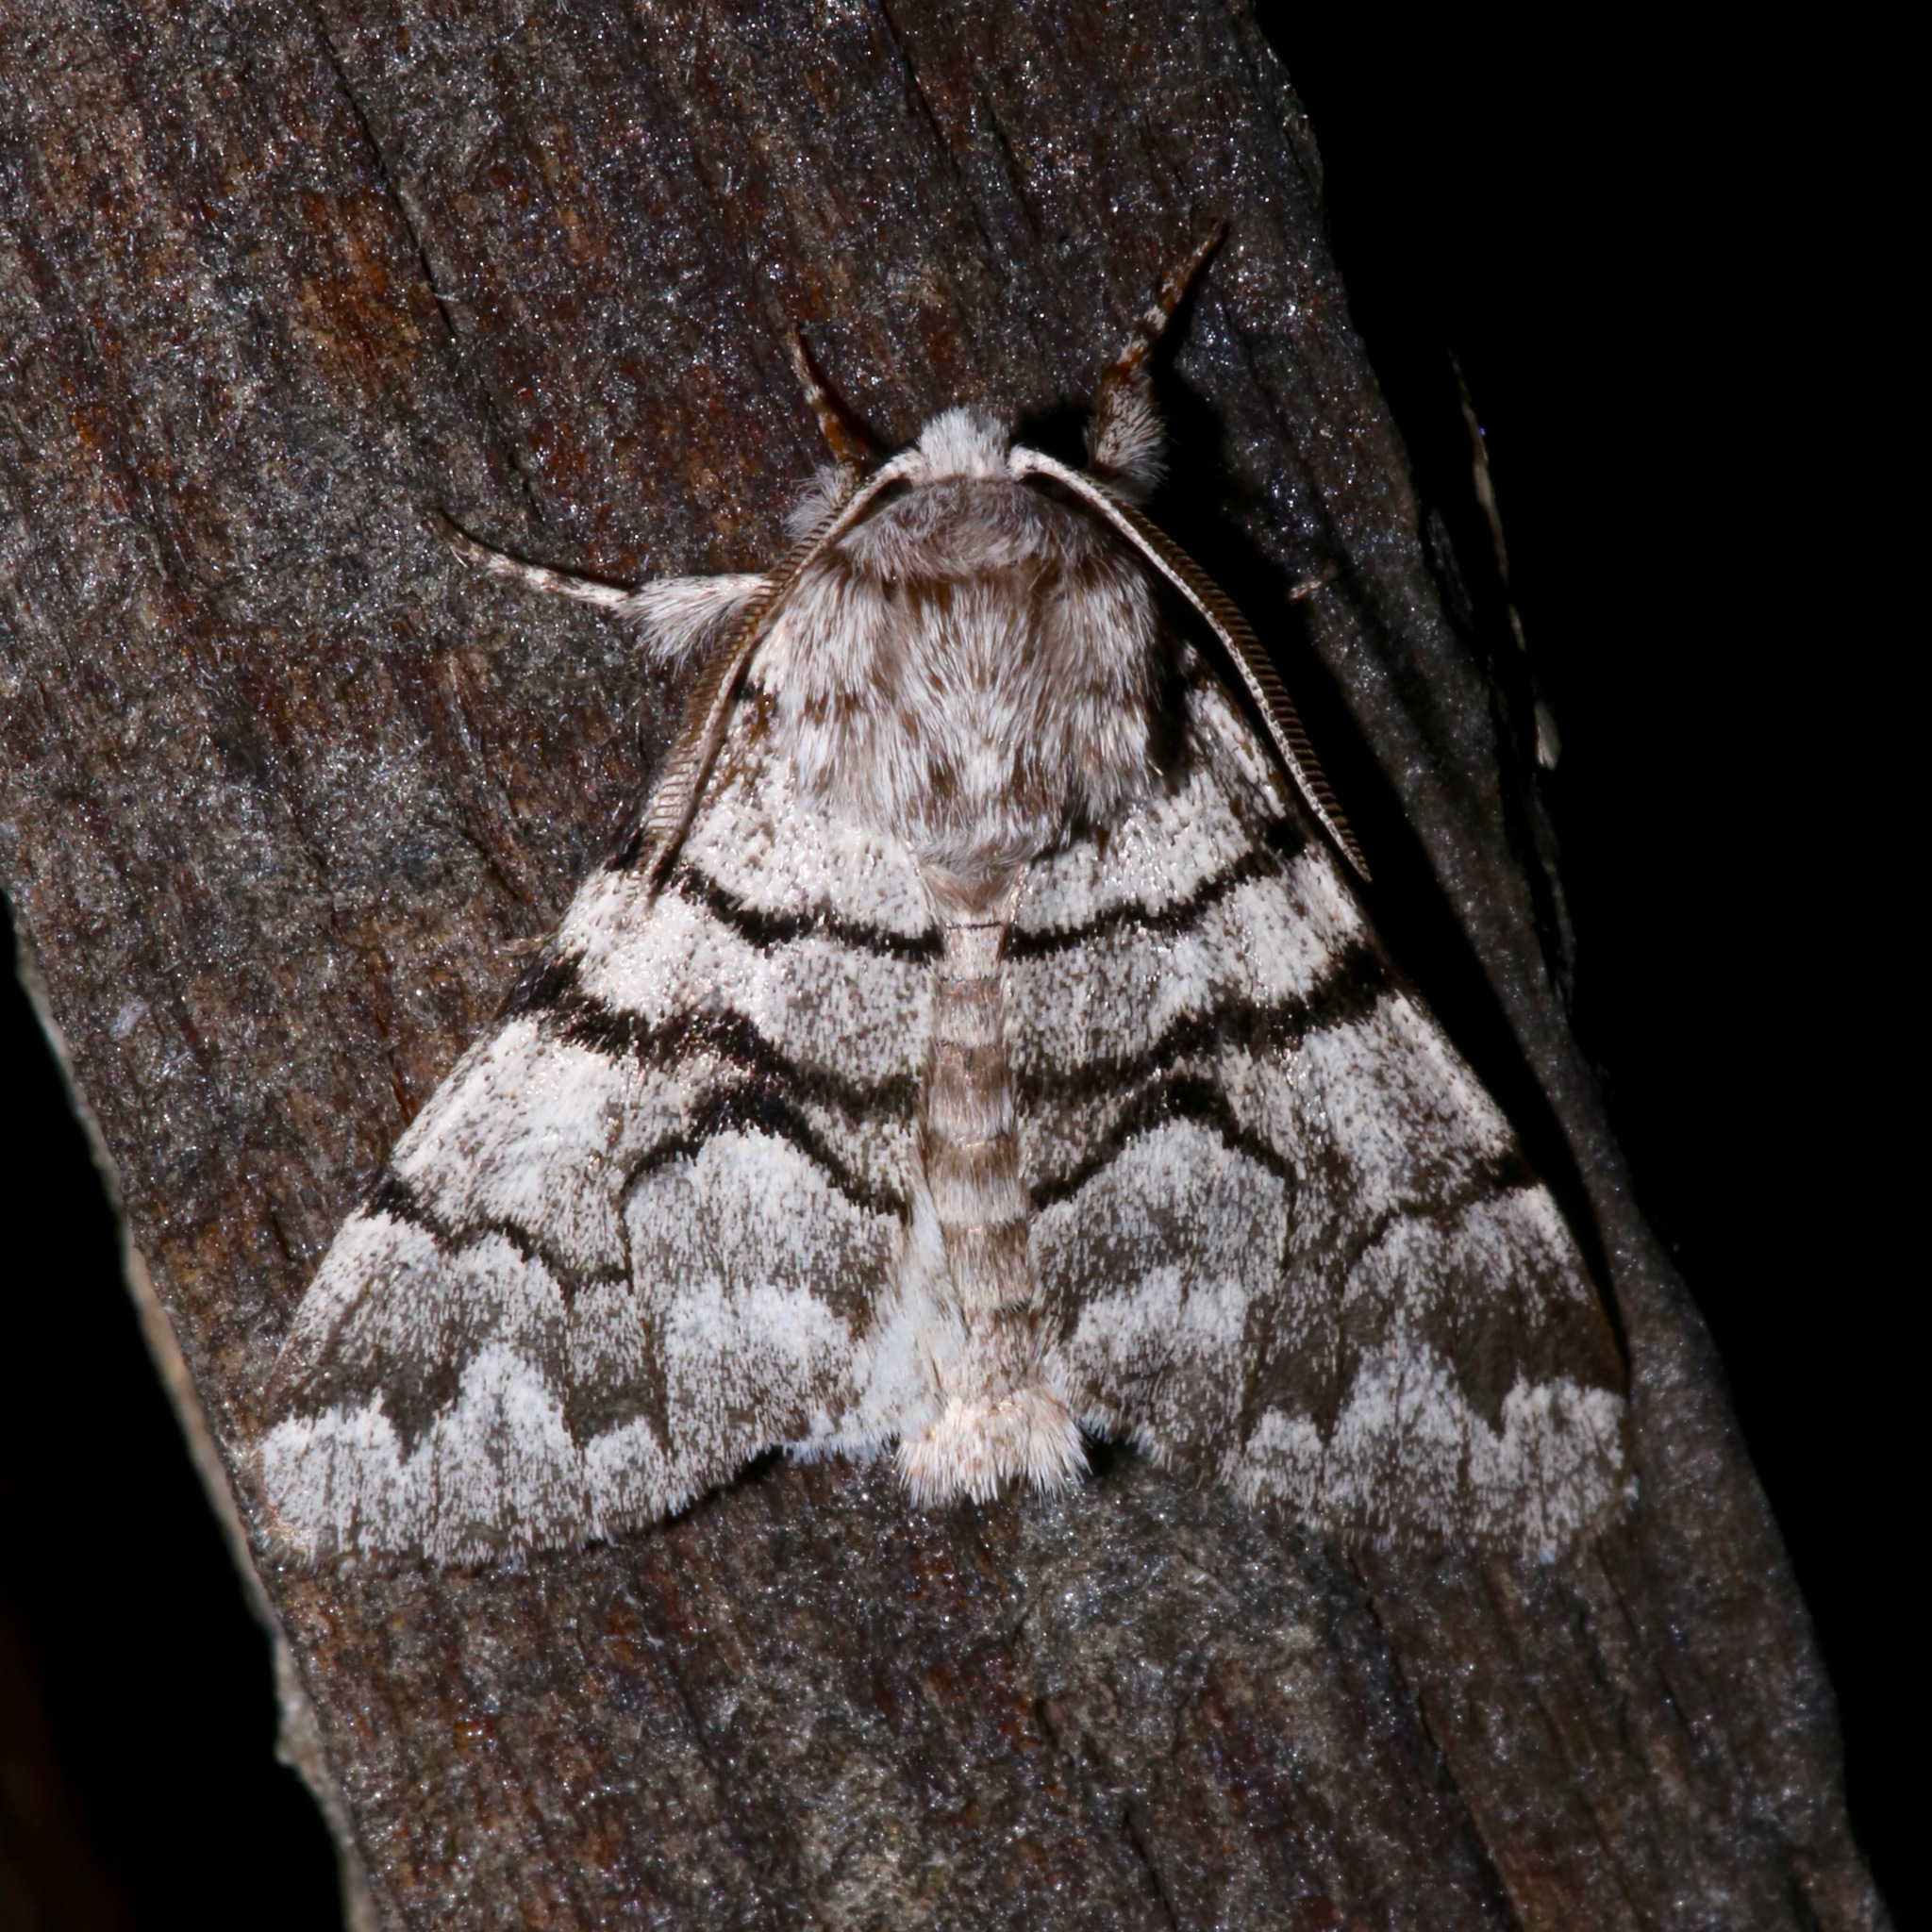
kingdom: Animalia
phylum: Arthropoda
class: Insecta
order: Lepidoptera
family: Noctuidae
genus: Panthea
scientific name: Panthea furcilla
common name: Eastern panthea moth
